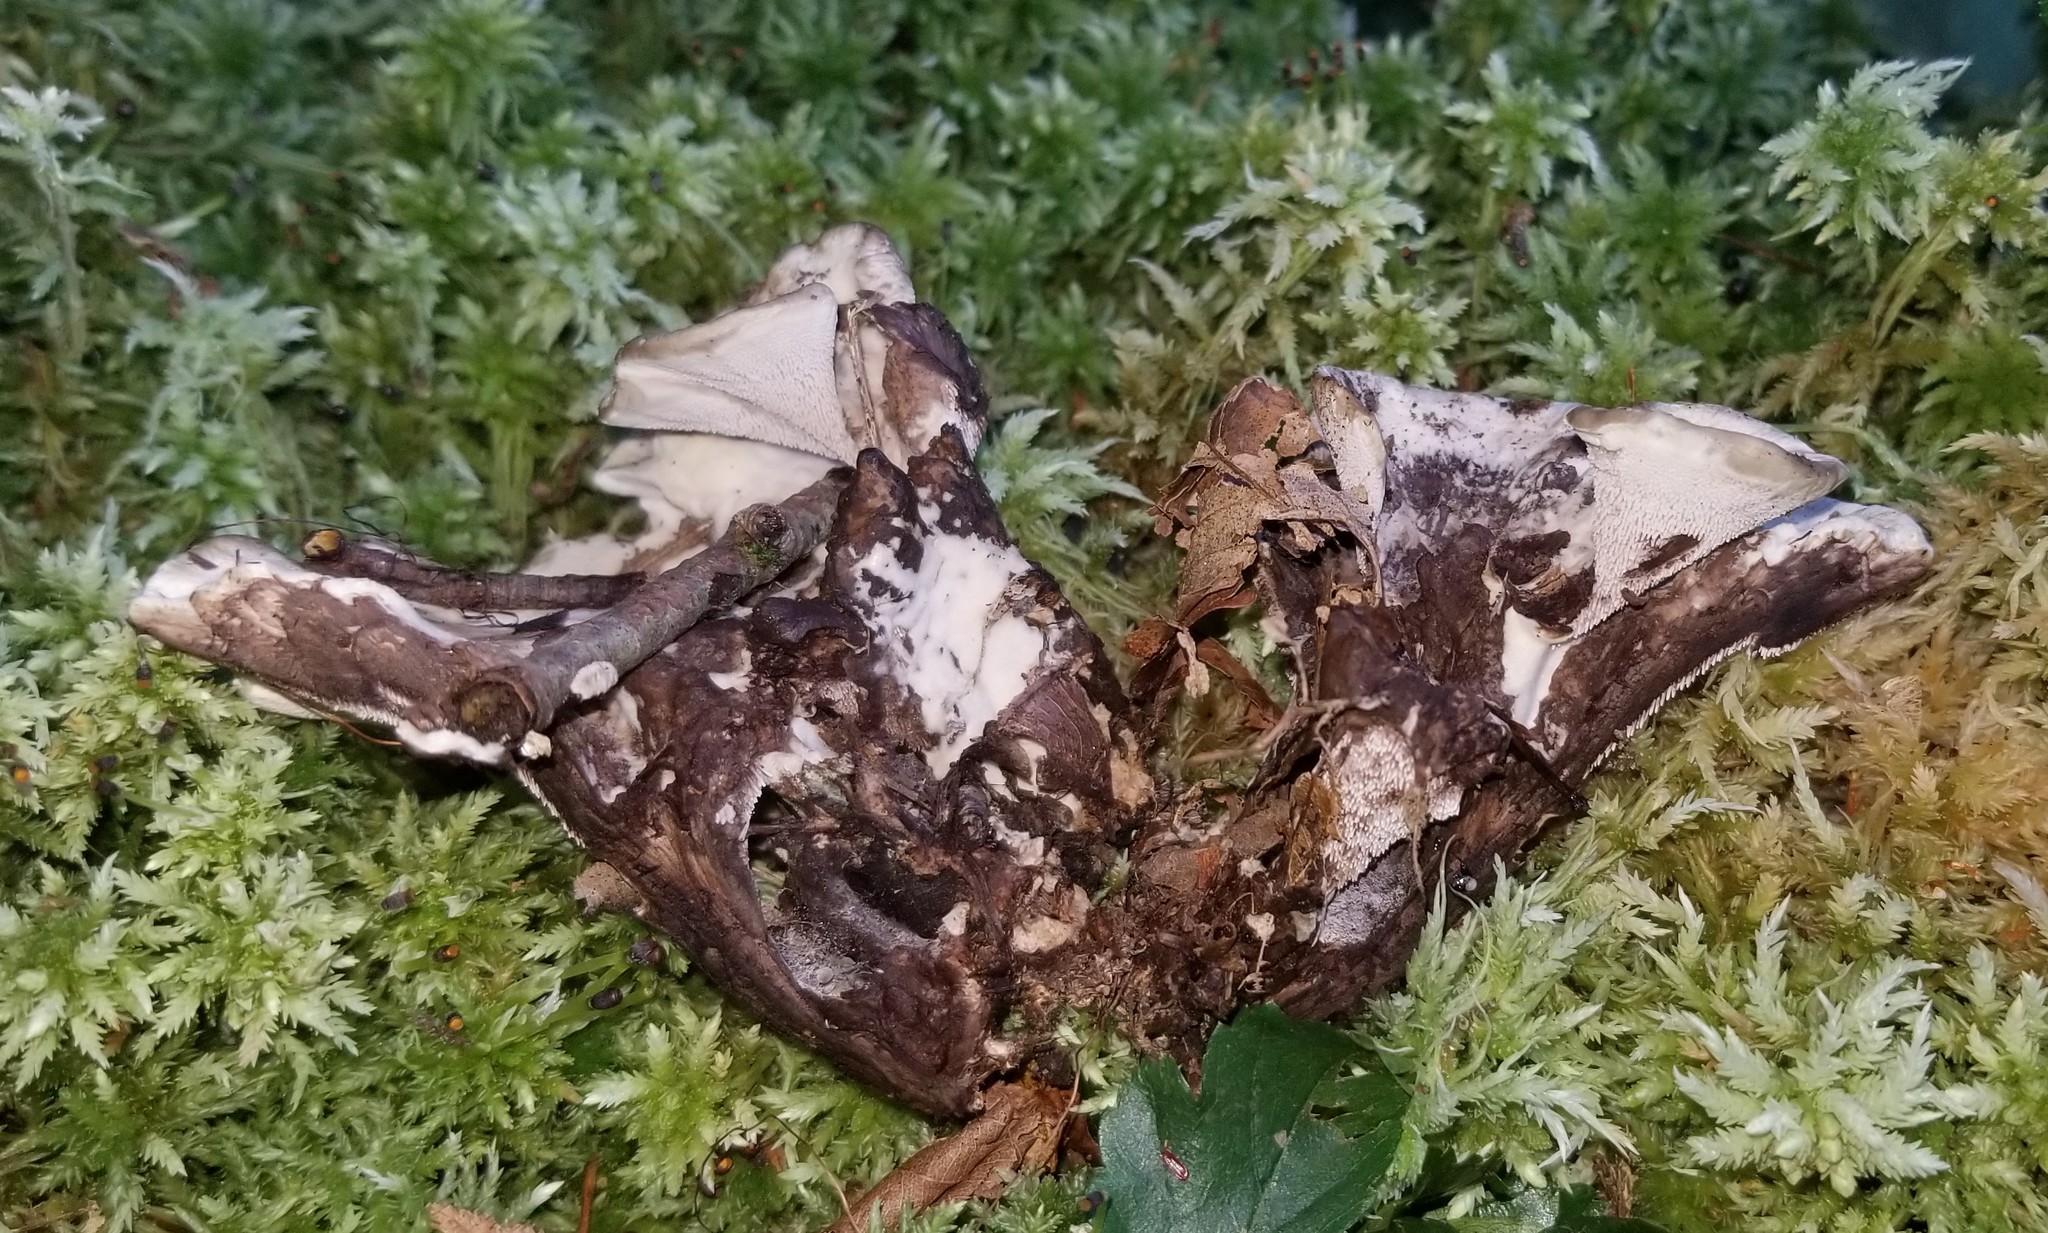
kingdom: Fungi
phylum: Basidiomycota
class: Agaricomycetes
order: Thelephorales
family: Thelephoraceae
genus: Phellodon
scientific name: Phellodon confluens
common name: Fused tooth
